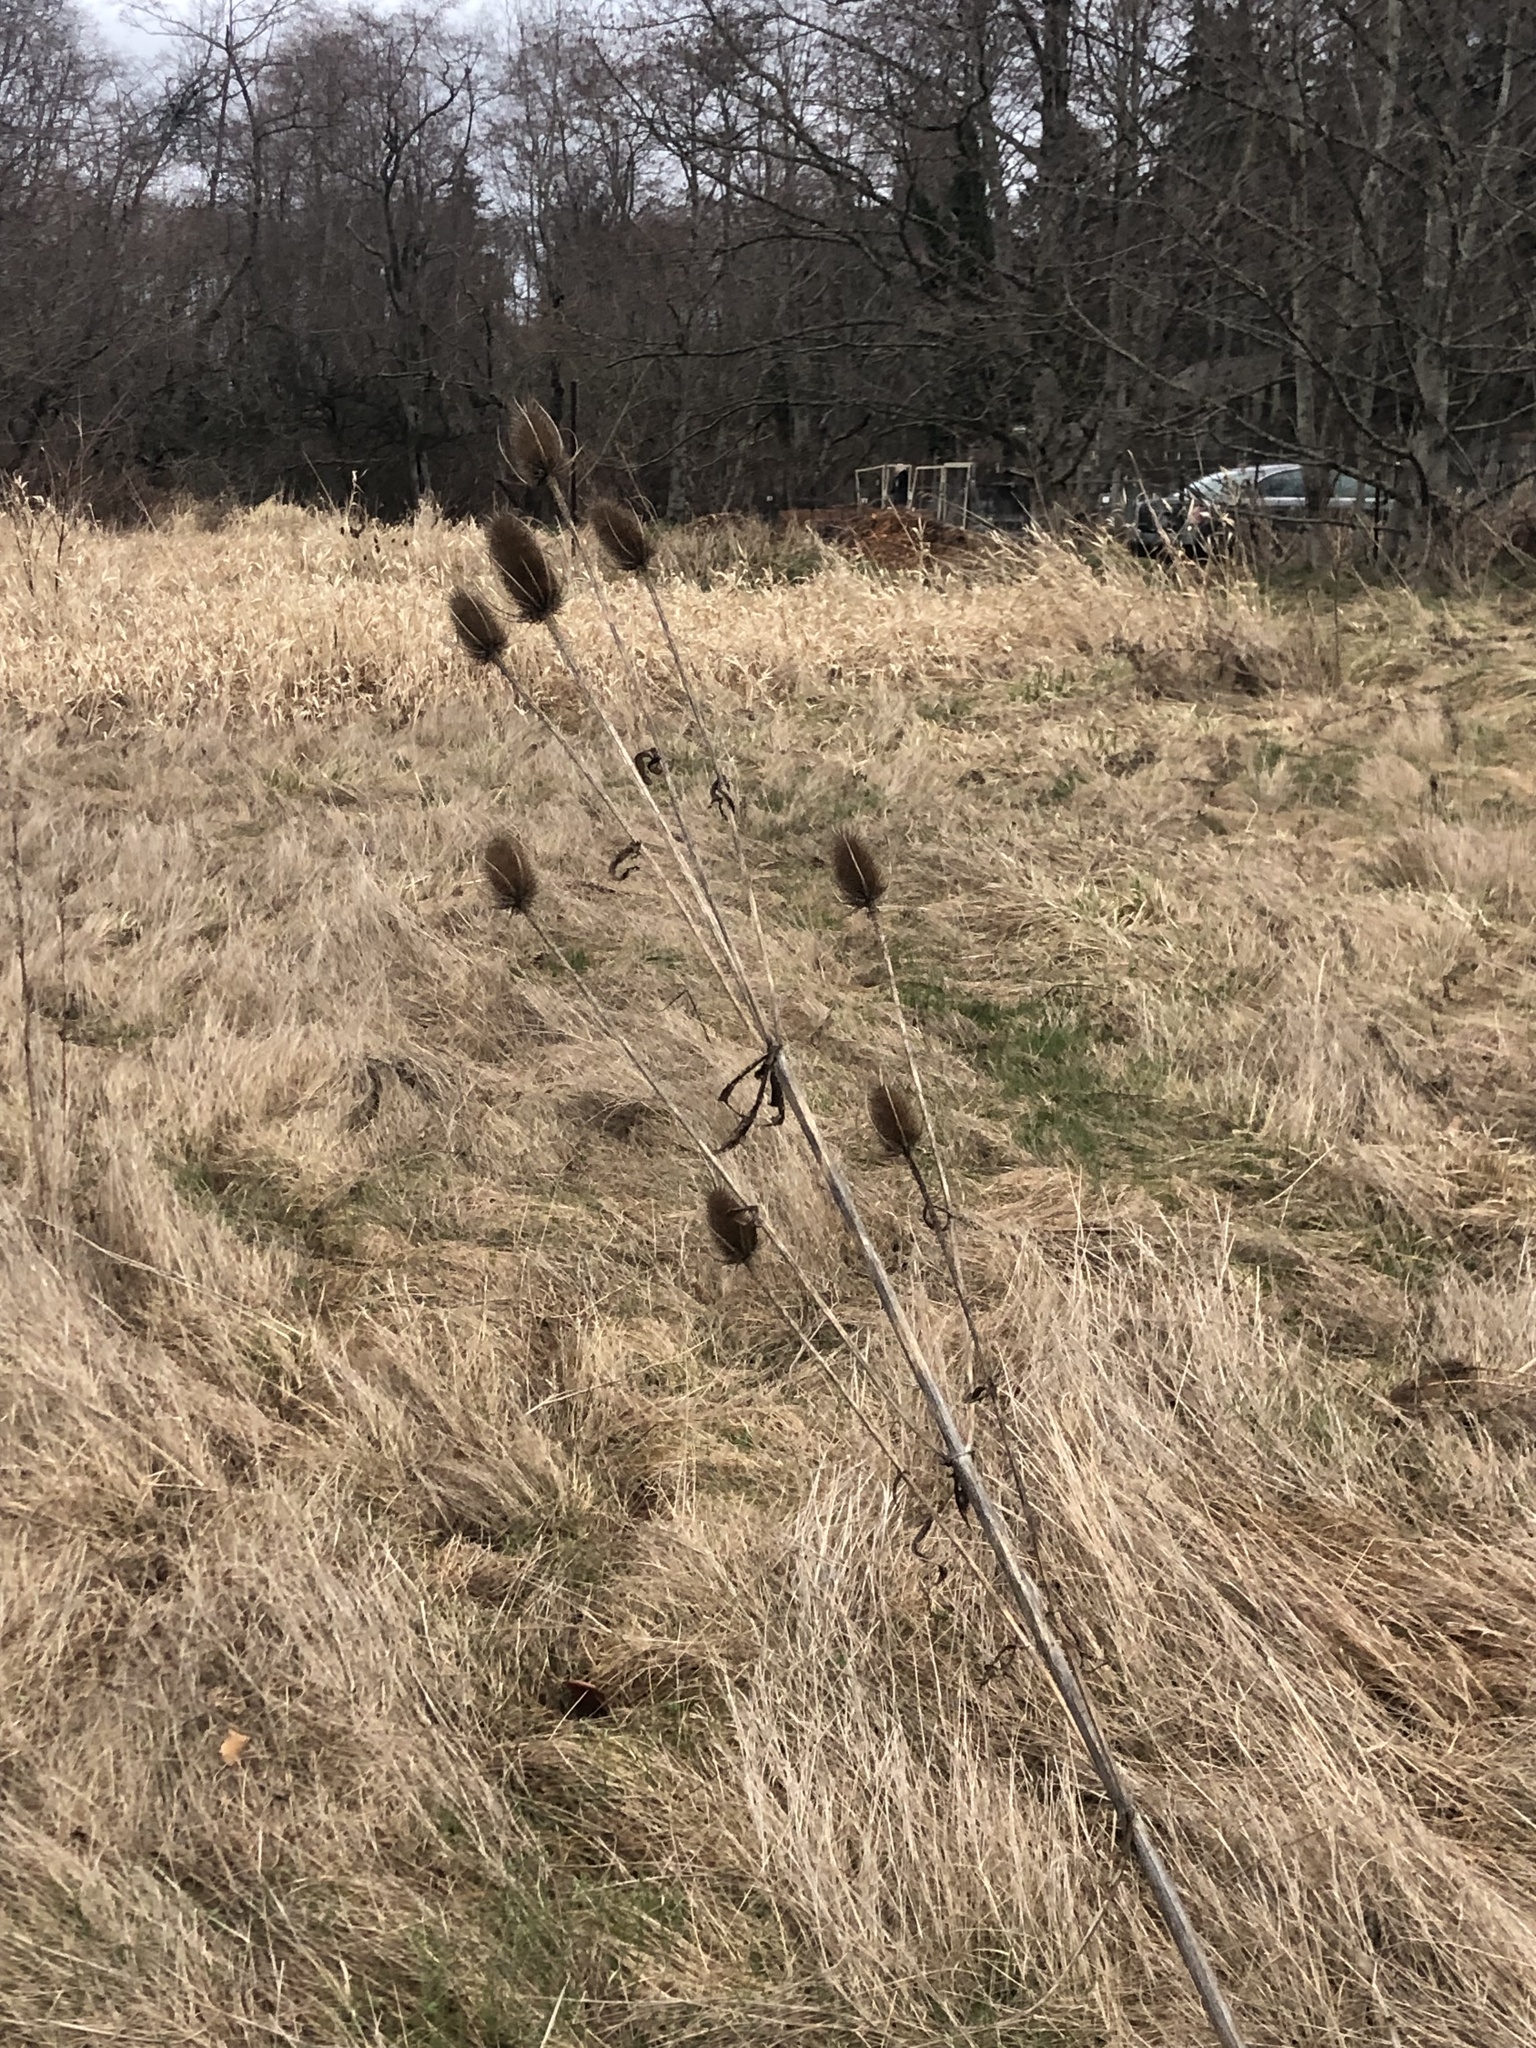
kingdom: Plantae
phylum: Tracheophyta
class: Magnoliopsida
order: Dipsacales
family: Caprifoliaceae
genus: Dipsacus
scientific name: Dipsacus fullonum
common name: Teasel
